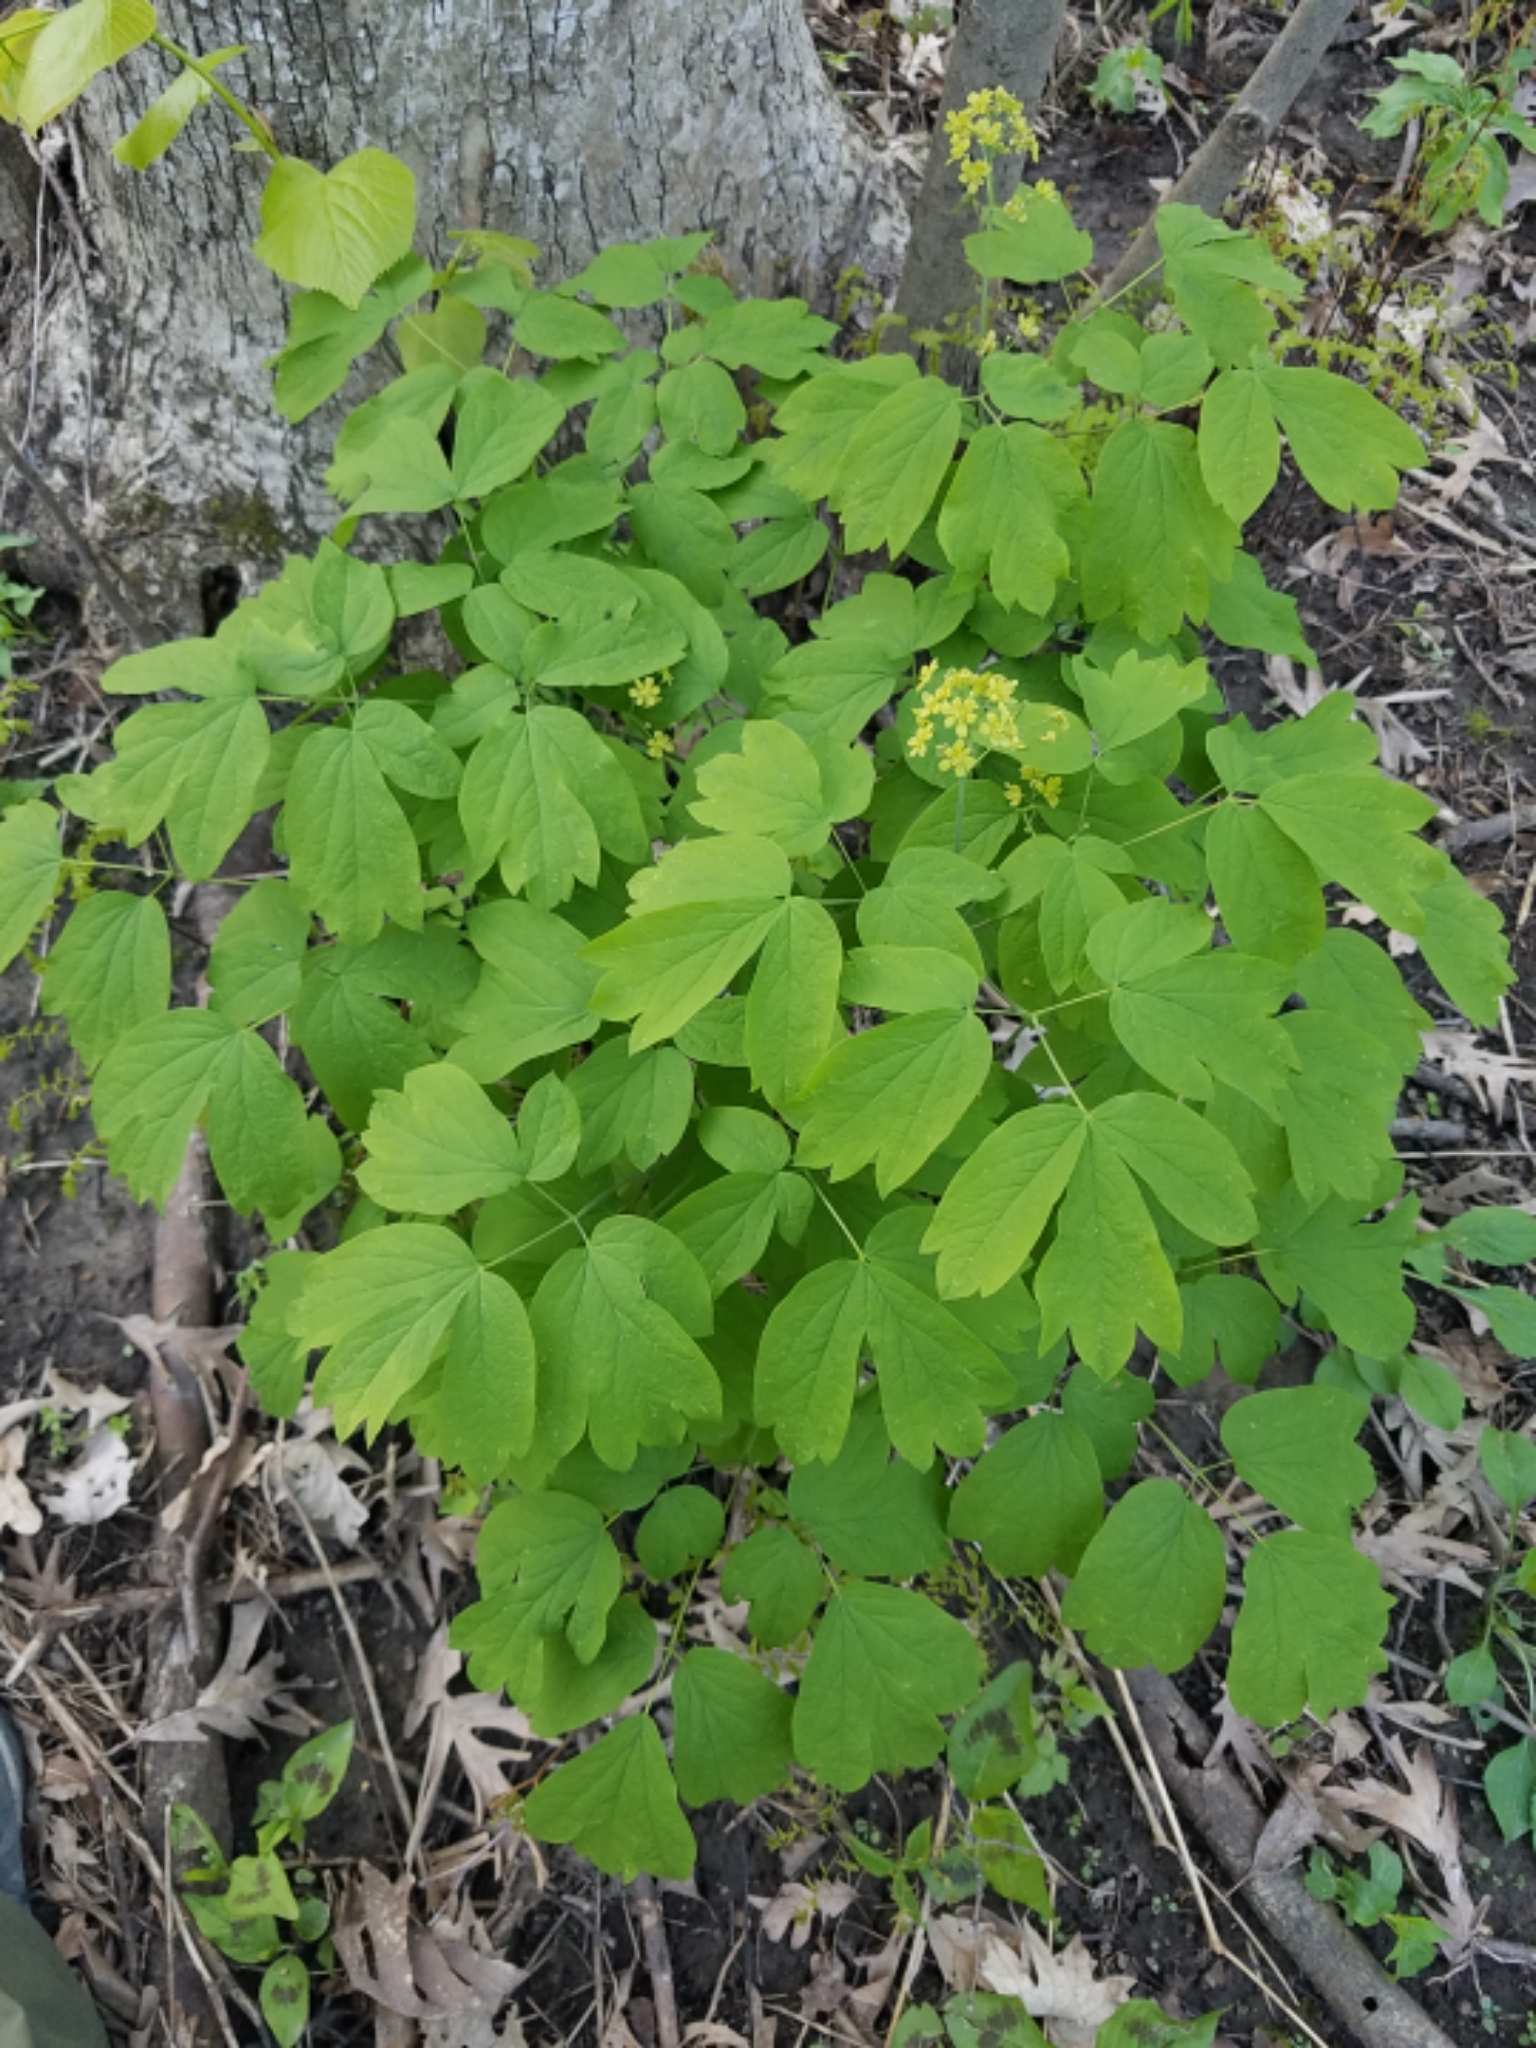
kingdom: Plantae
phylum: Tracheophyta
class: Magnoliopsida
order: Ranunculales
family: Berberidaceae
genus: Caulophyllum
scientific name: Caulophyllum thalictroides
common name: Blue cohosh
